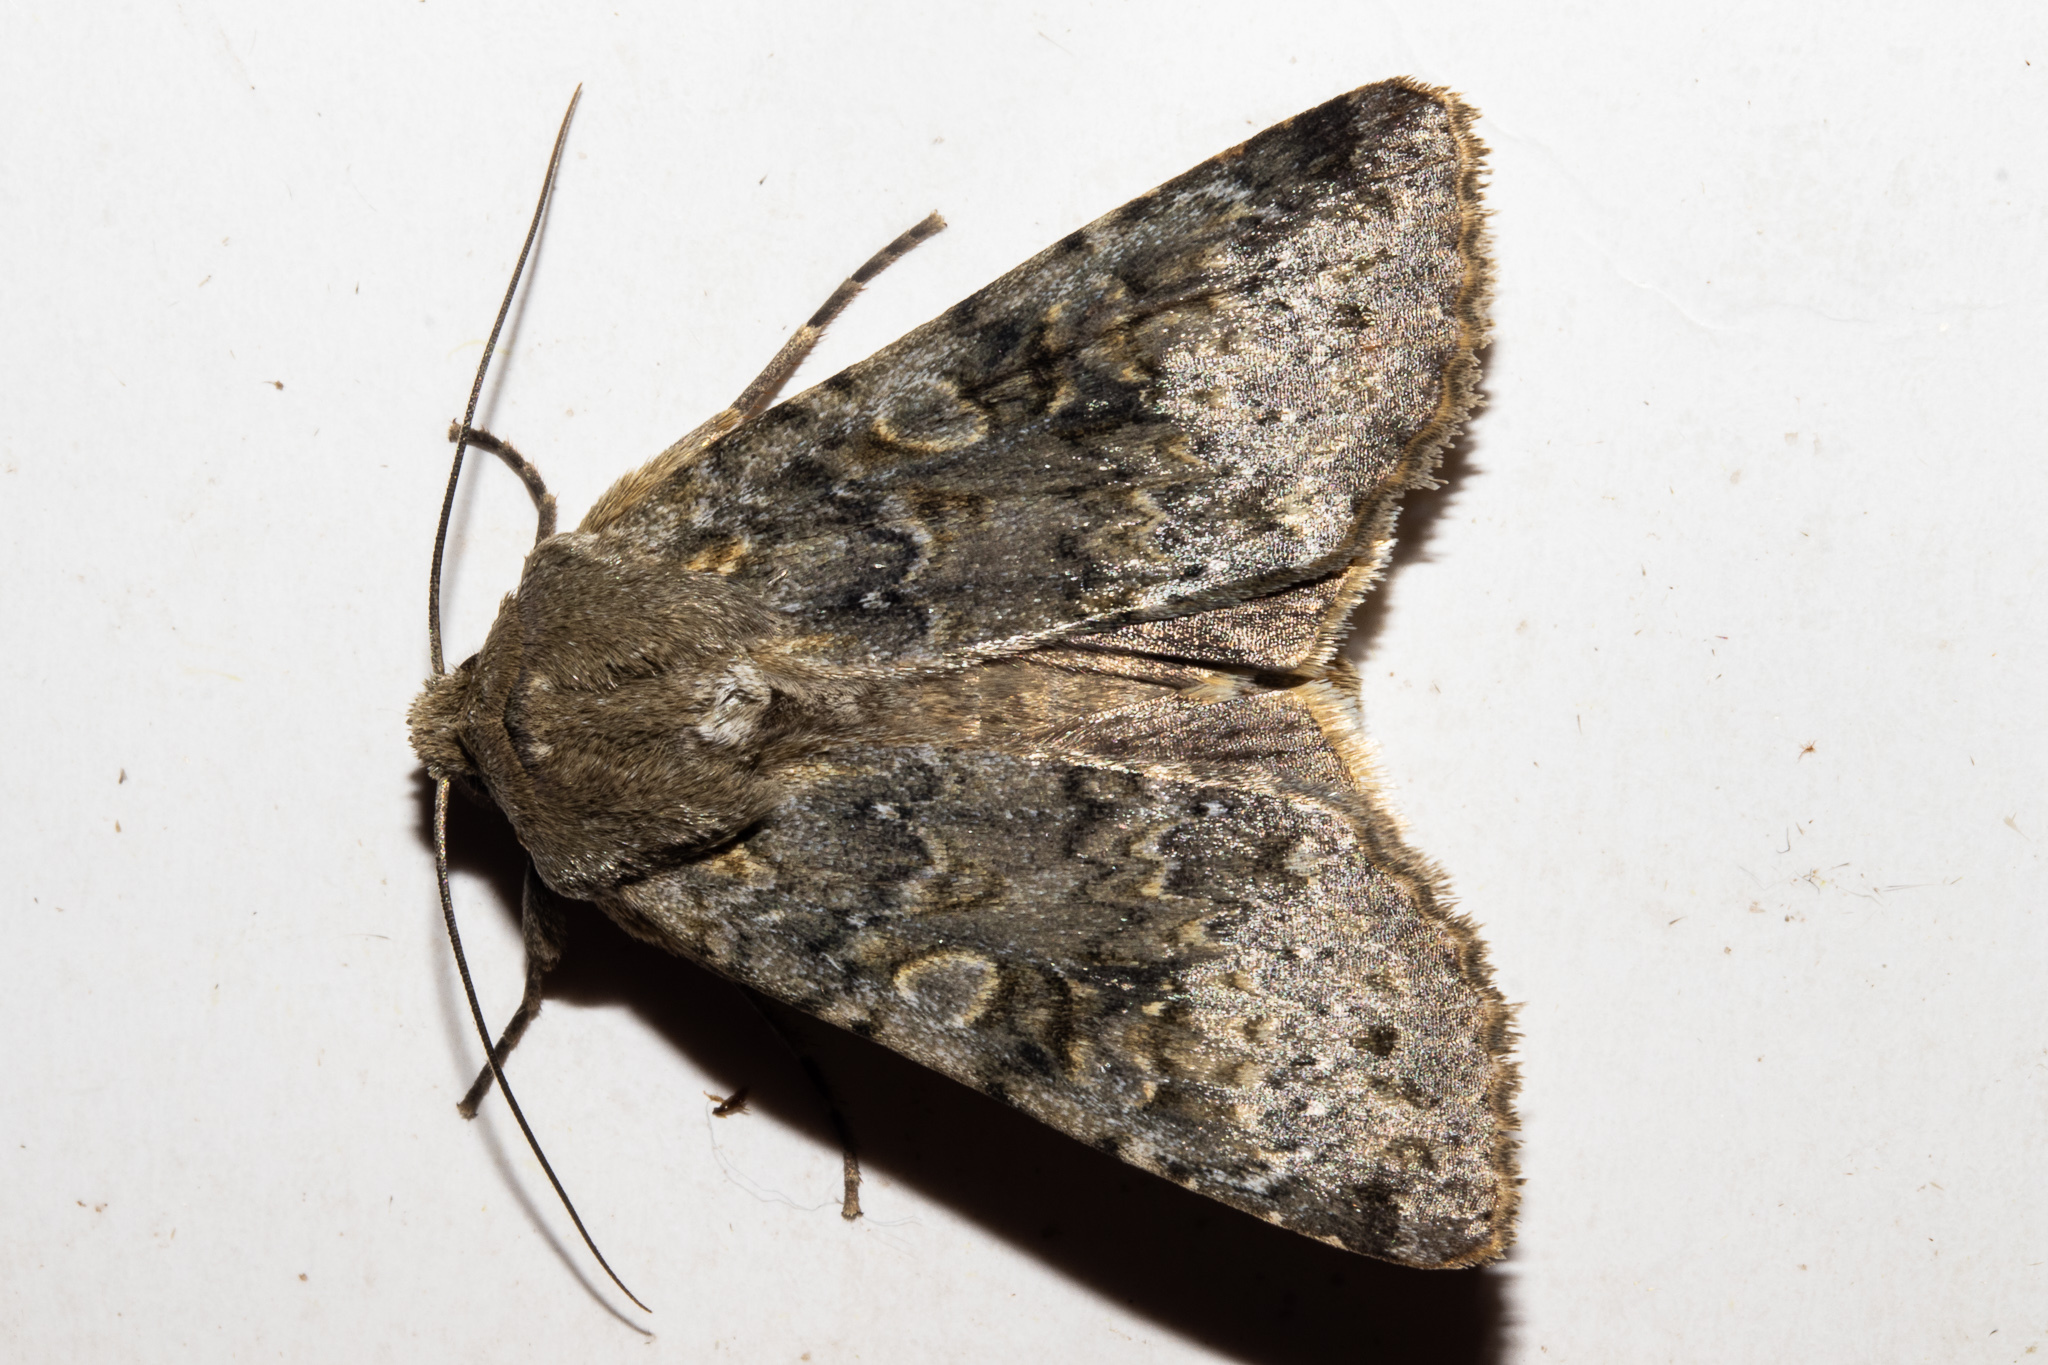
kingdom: Animalia
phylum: Arthropoda
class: Insecta
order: Lepidoptera
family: Noctuidae
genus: Ichneutica
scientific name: Ichneutica
